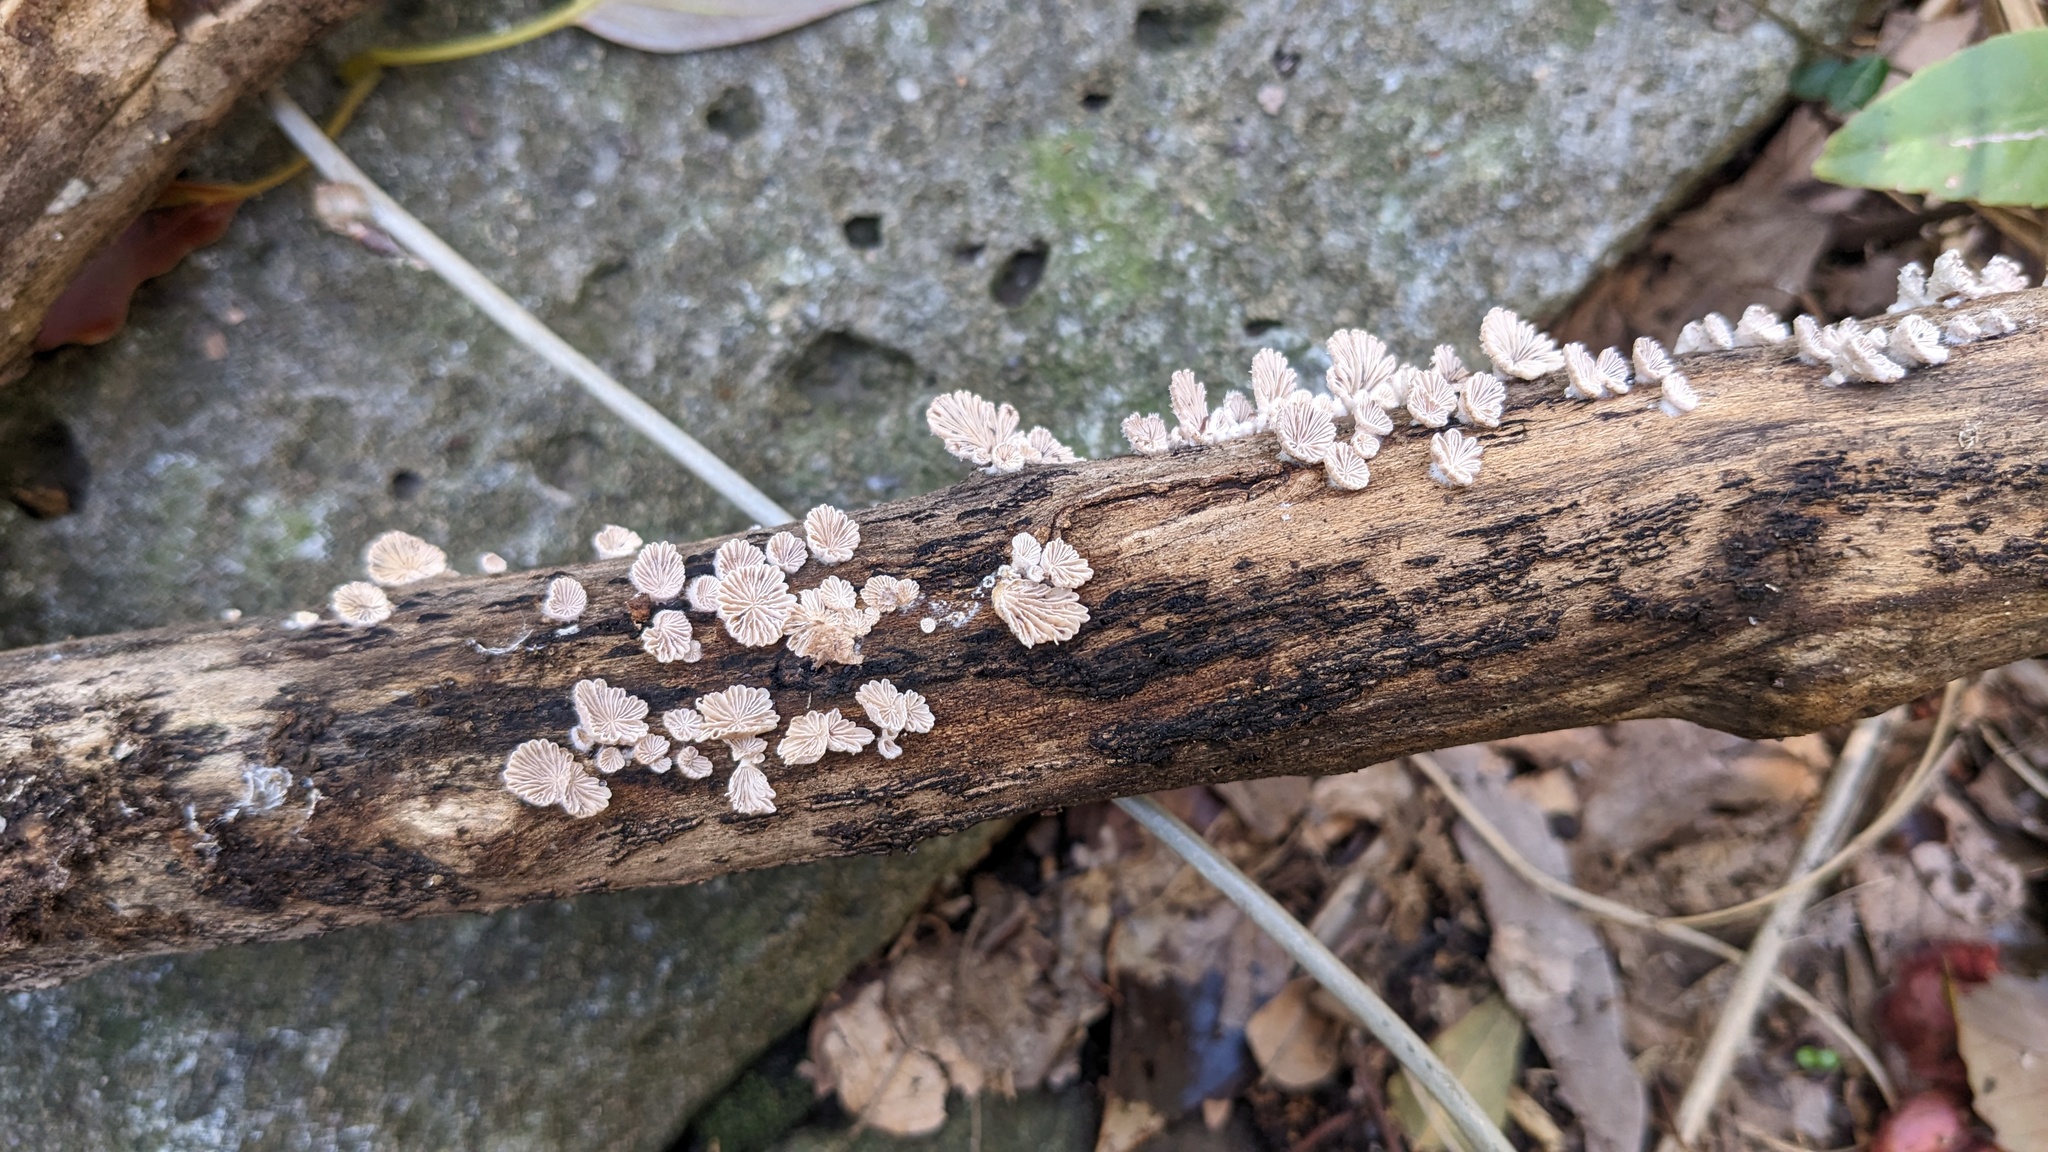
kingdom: Fungi
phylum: Basidiomycota
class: Agaricomycetes
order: Agaricales
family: Schizophyllaceae
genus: Schizophyllum
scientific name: Schizophyllum commune
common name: Common porecrust
